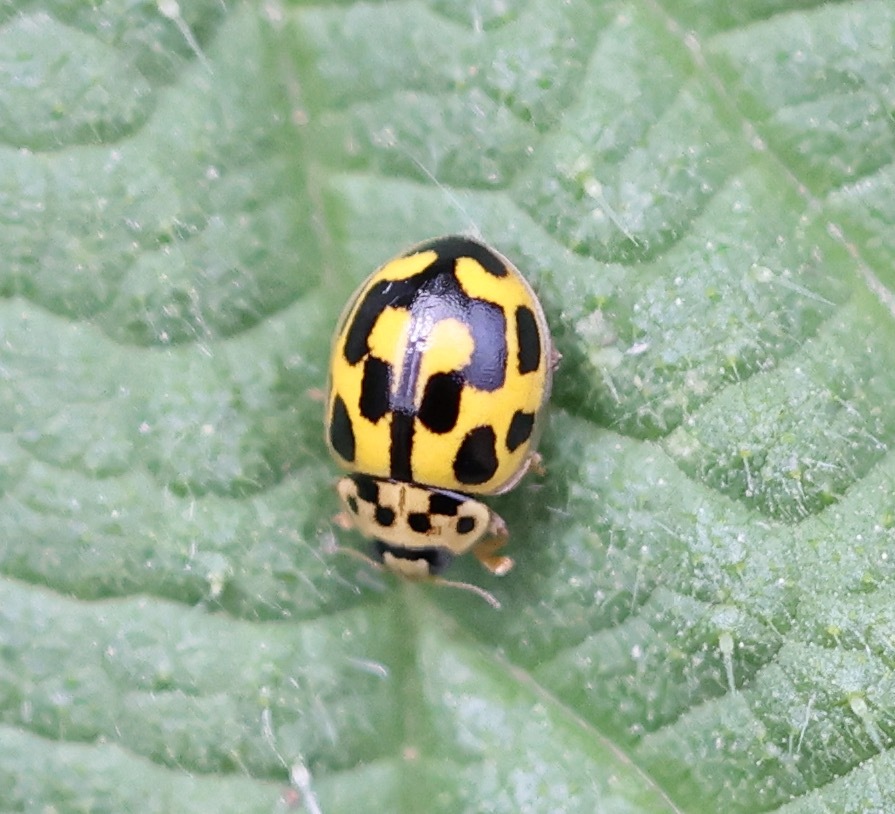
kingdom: Animalia
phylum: Arthropoda
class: Insecta
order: Coleoptera
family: Coccinellidae
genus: Propylaea
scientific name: Propylaea quatuordecimpunctata
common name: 14-spotted ladybird beetle
